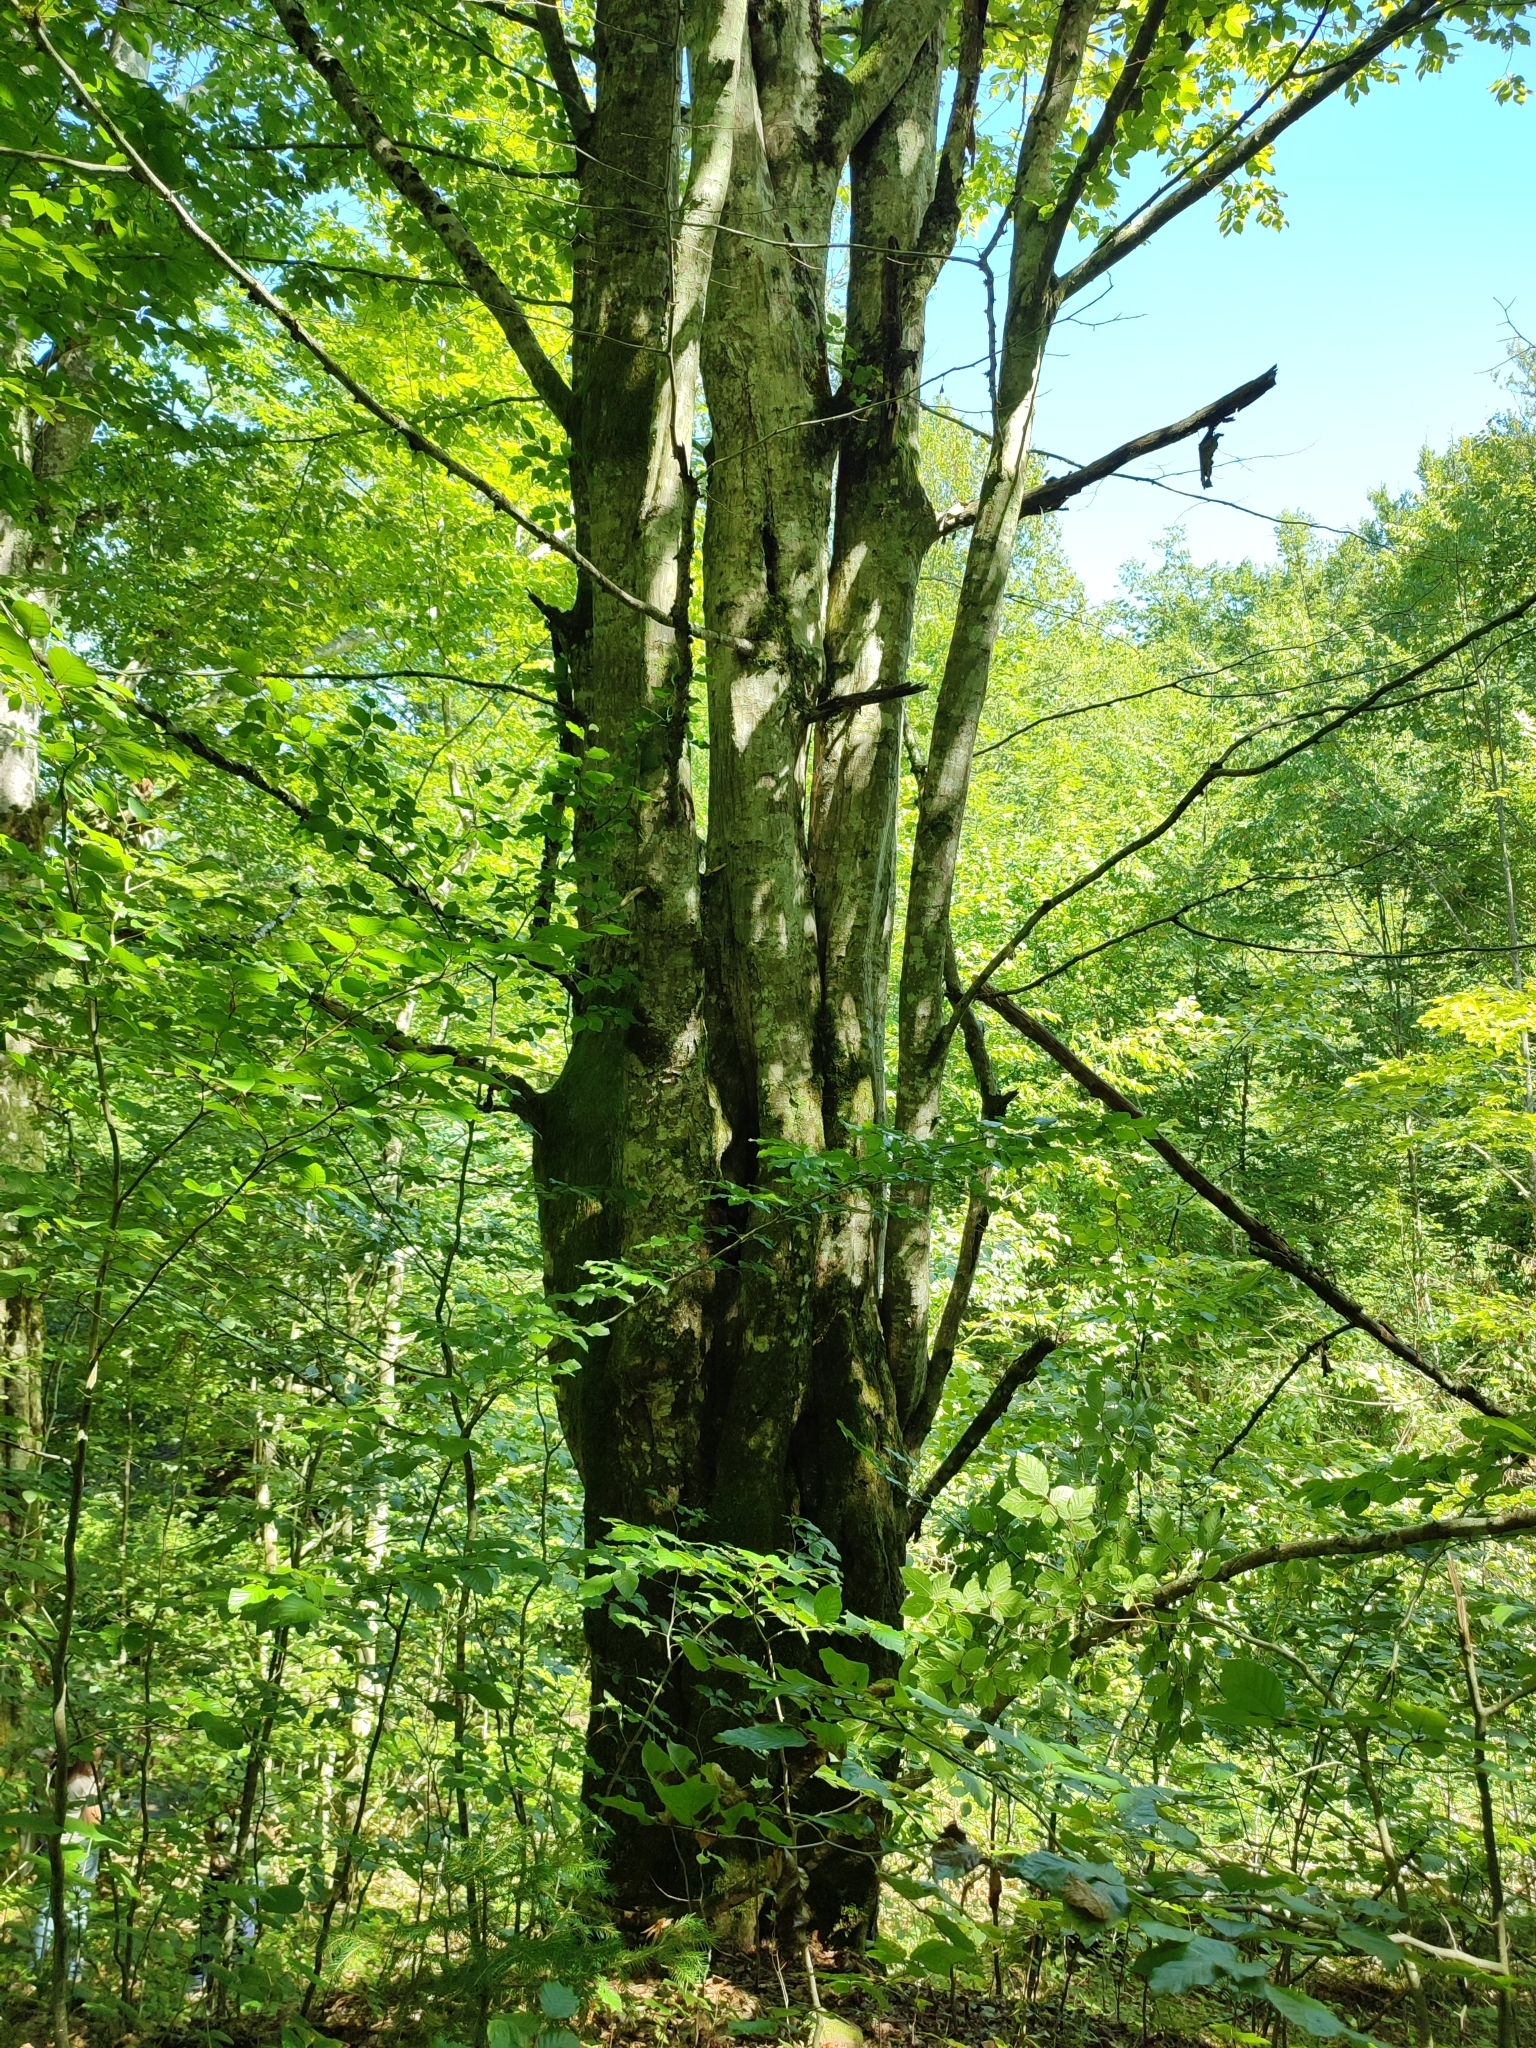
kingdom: Plantae
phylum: Tracheophyta
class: Magnoliopsida
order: Fagales
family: Fagaceae
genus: Fagus
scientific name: Fagus sylvatica
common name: Beech
